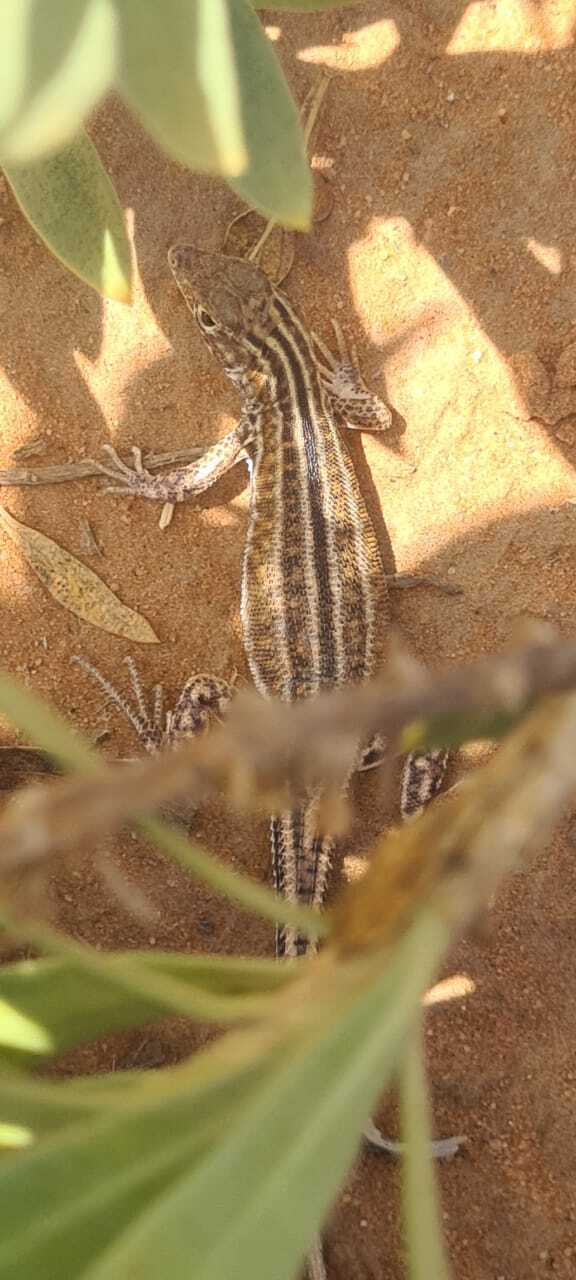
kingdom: Animalia
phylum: Chordata
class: Squamata
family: Lacertidae
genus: Acanthodactylus
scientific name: Acanthodactylus opheodurus
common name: Arnold's fringe-fingered lizard
